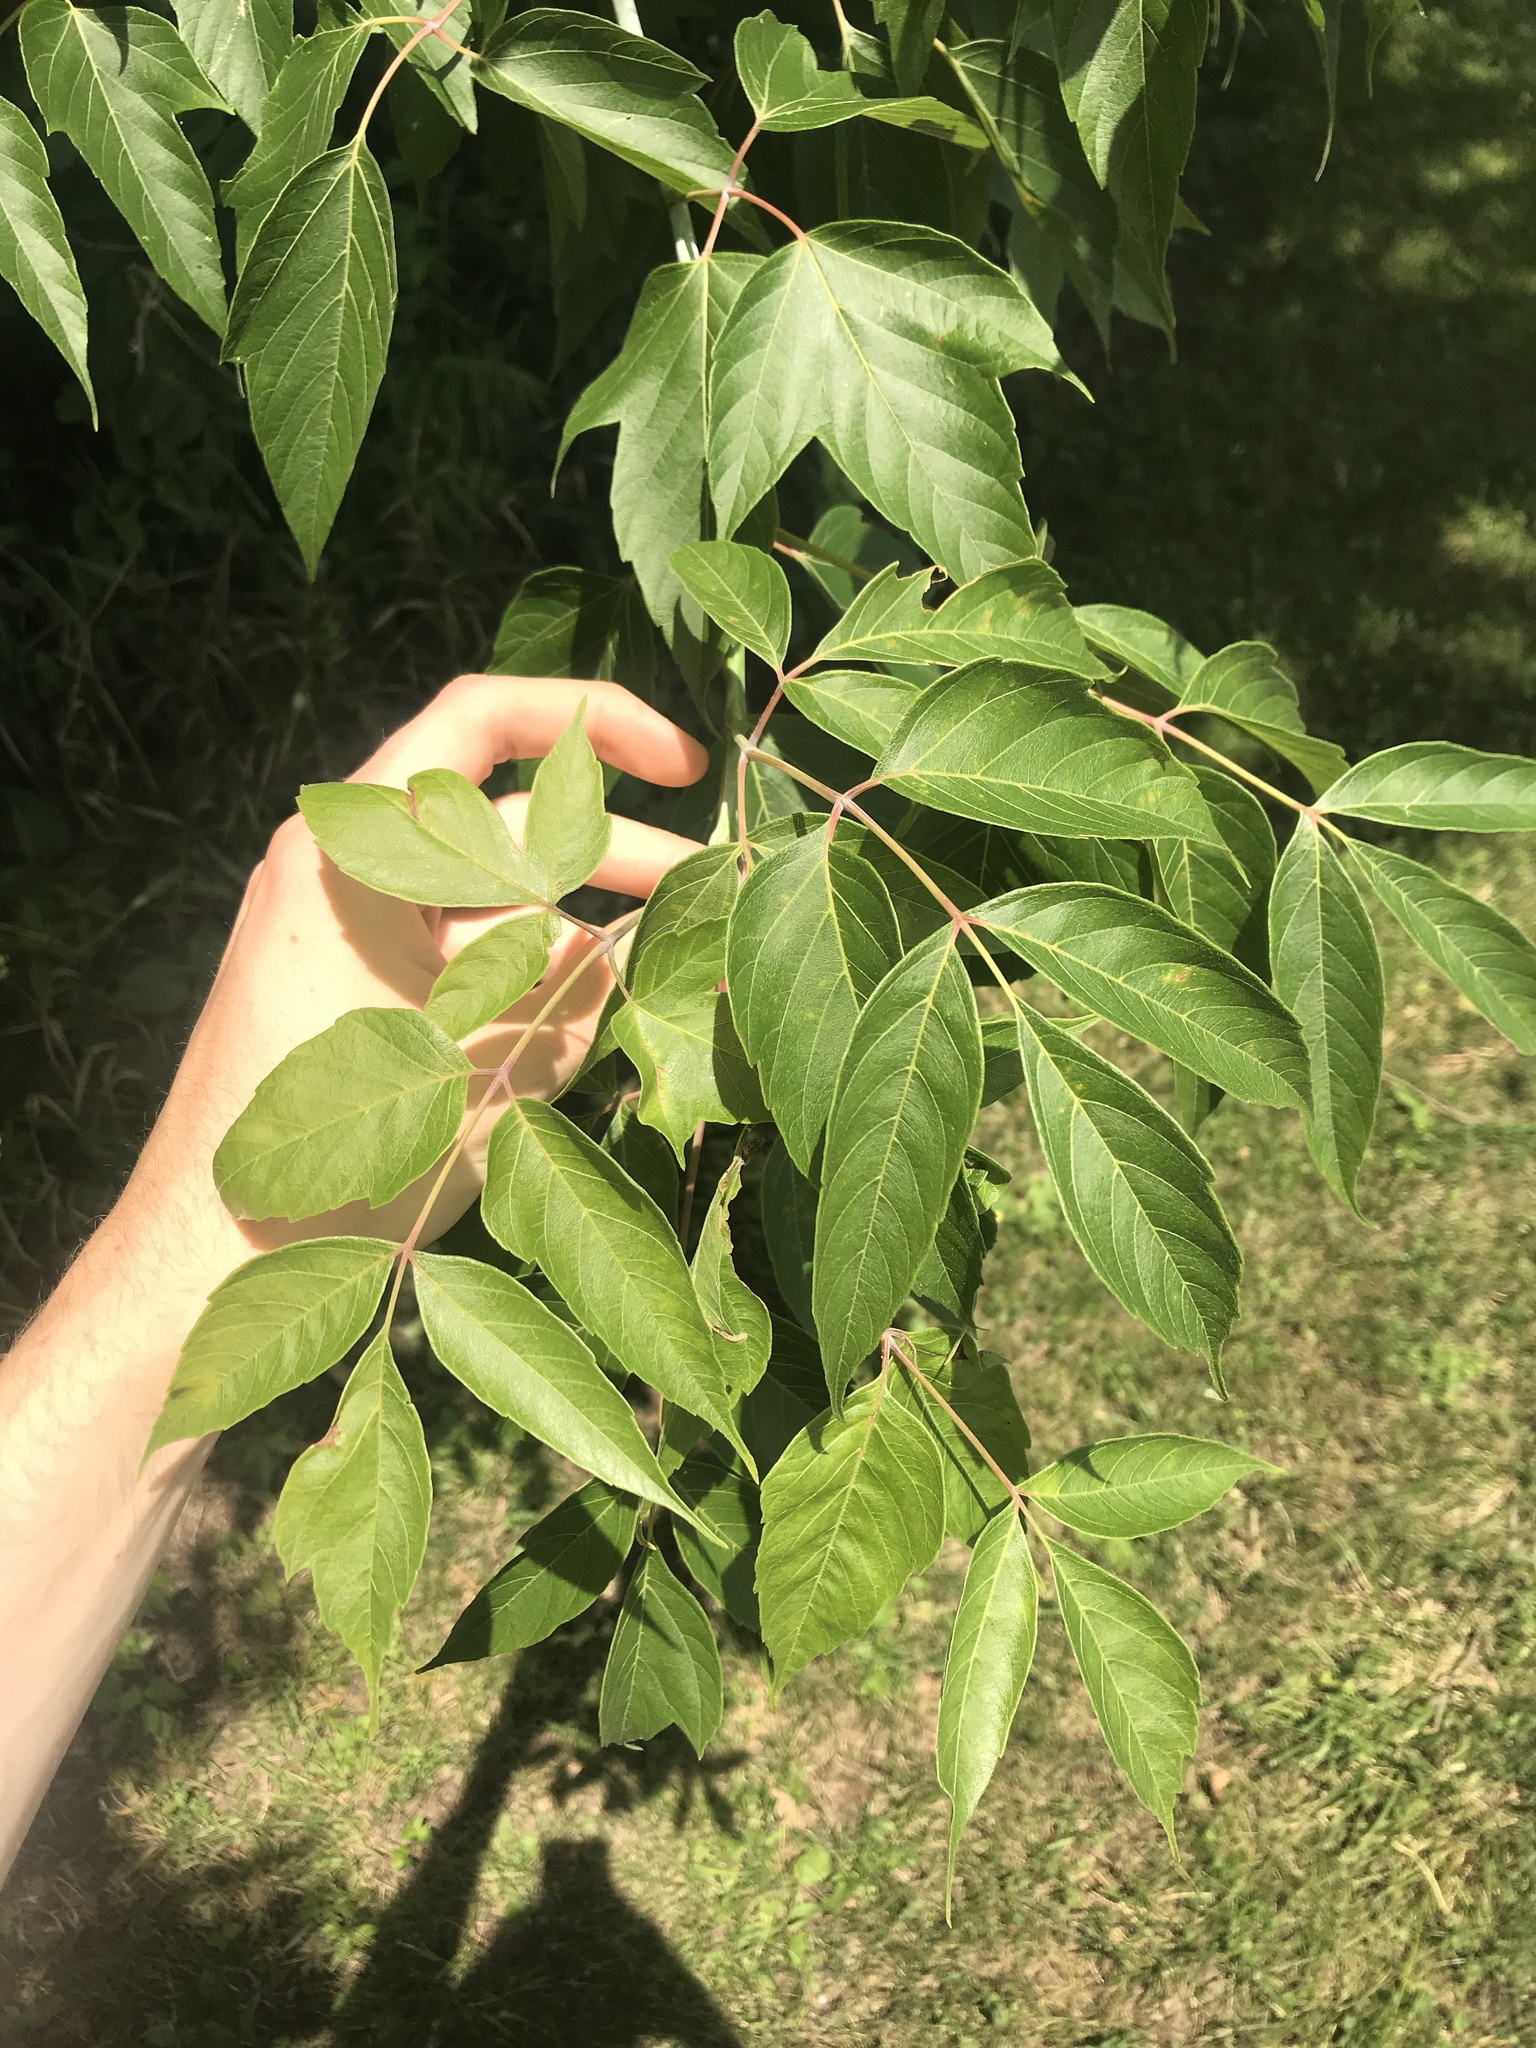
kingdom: Plantae
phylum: Tracheophyta
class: Magnoliopsida
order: Sapindales
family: Sapindaceae
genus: Acer
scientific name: Acer negundo
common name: Ashleaf maple
